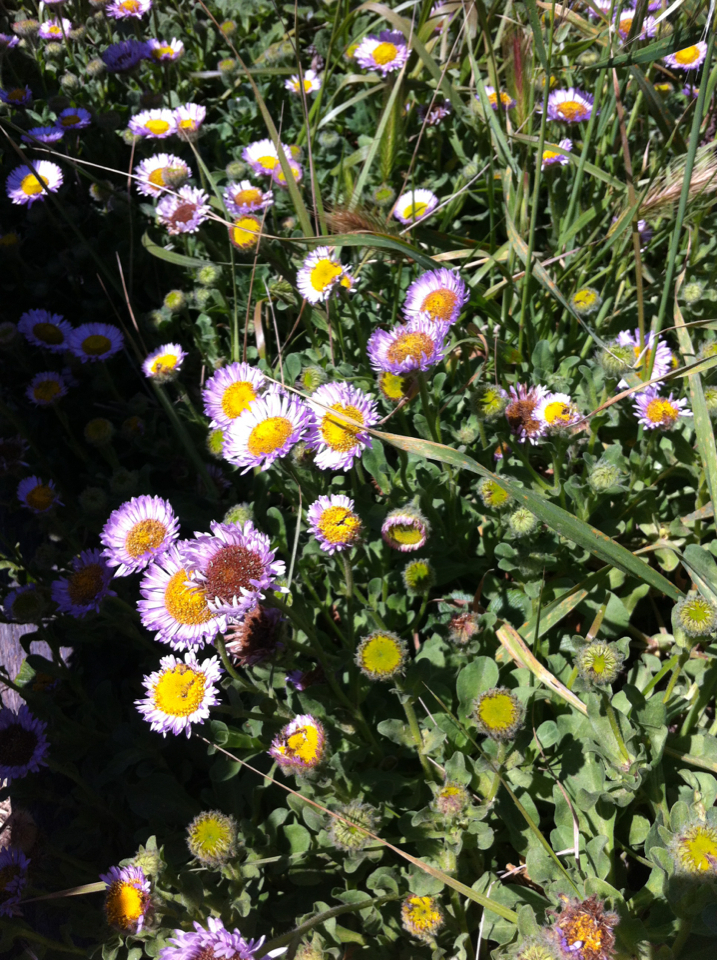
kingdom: Plantae
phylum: Tracheophyta
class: Magnoliopsida
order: Asterales
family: Asteraceae
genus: Erigeron
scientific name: Erigeron glaucus
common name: Seaside daisy
